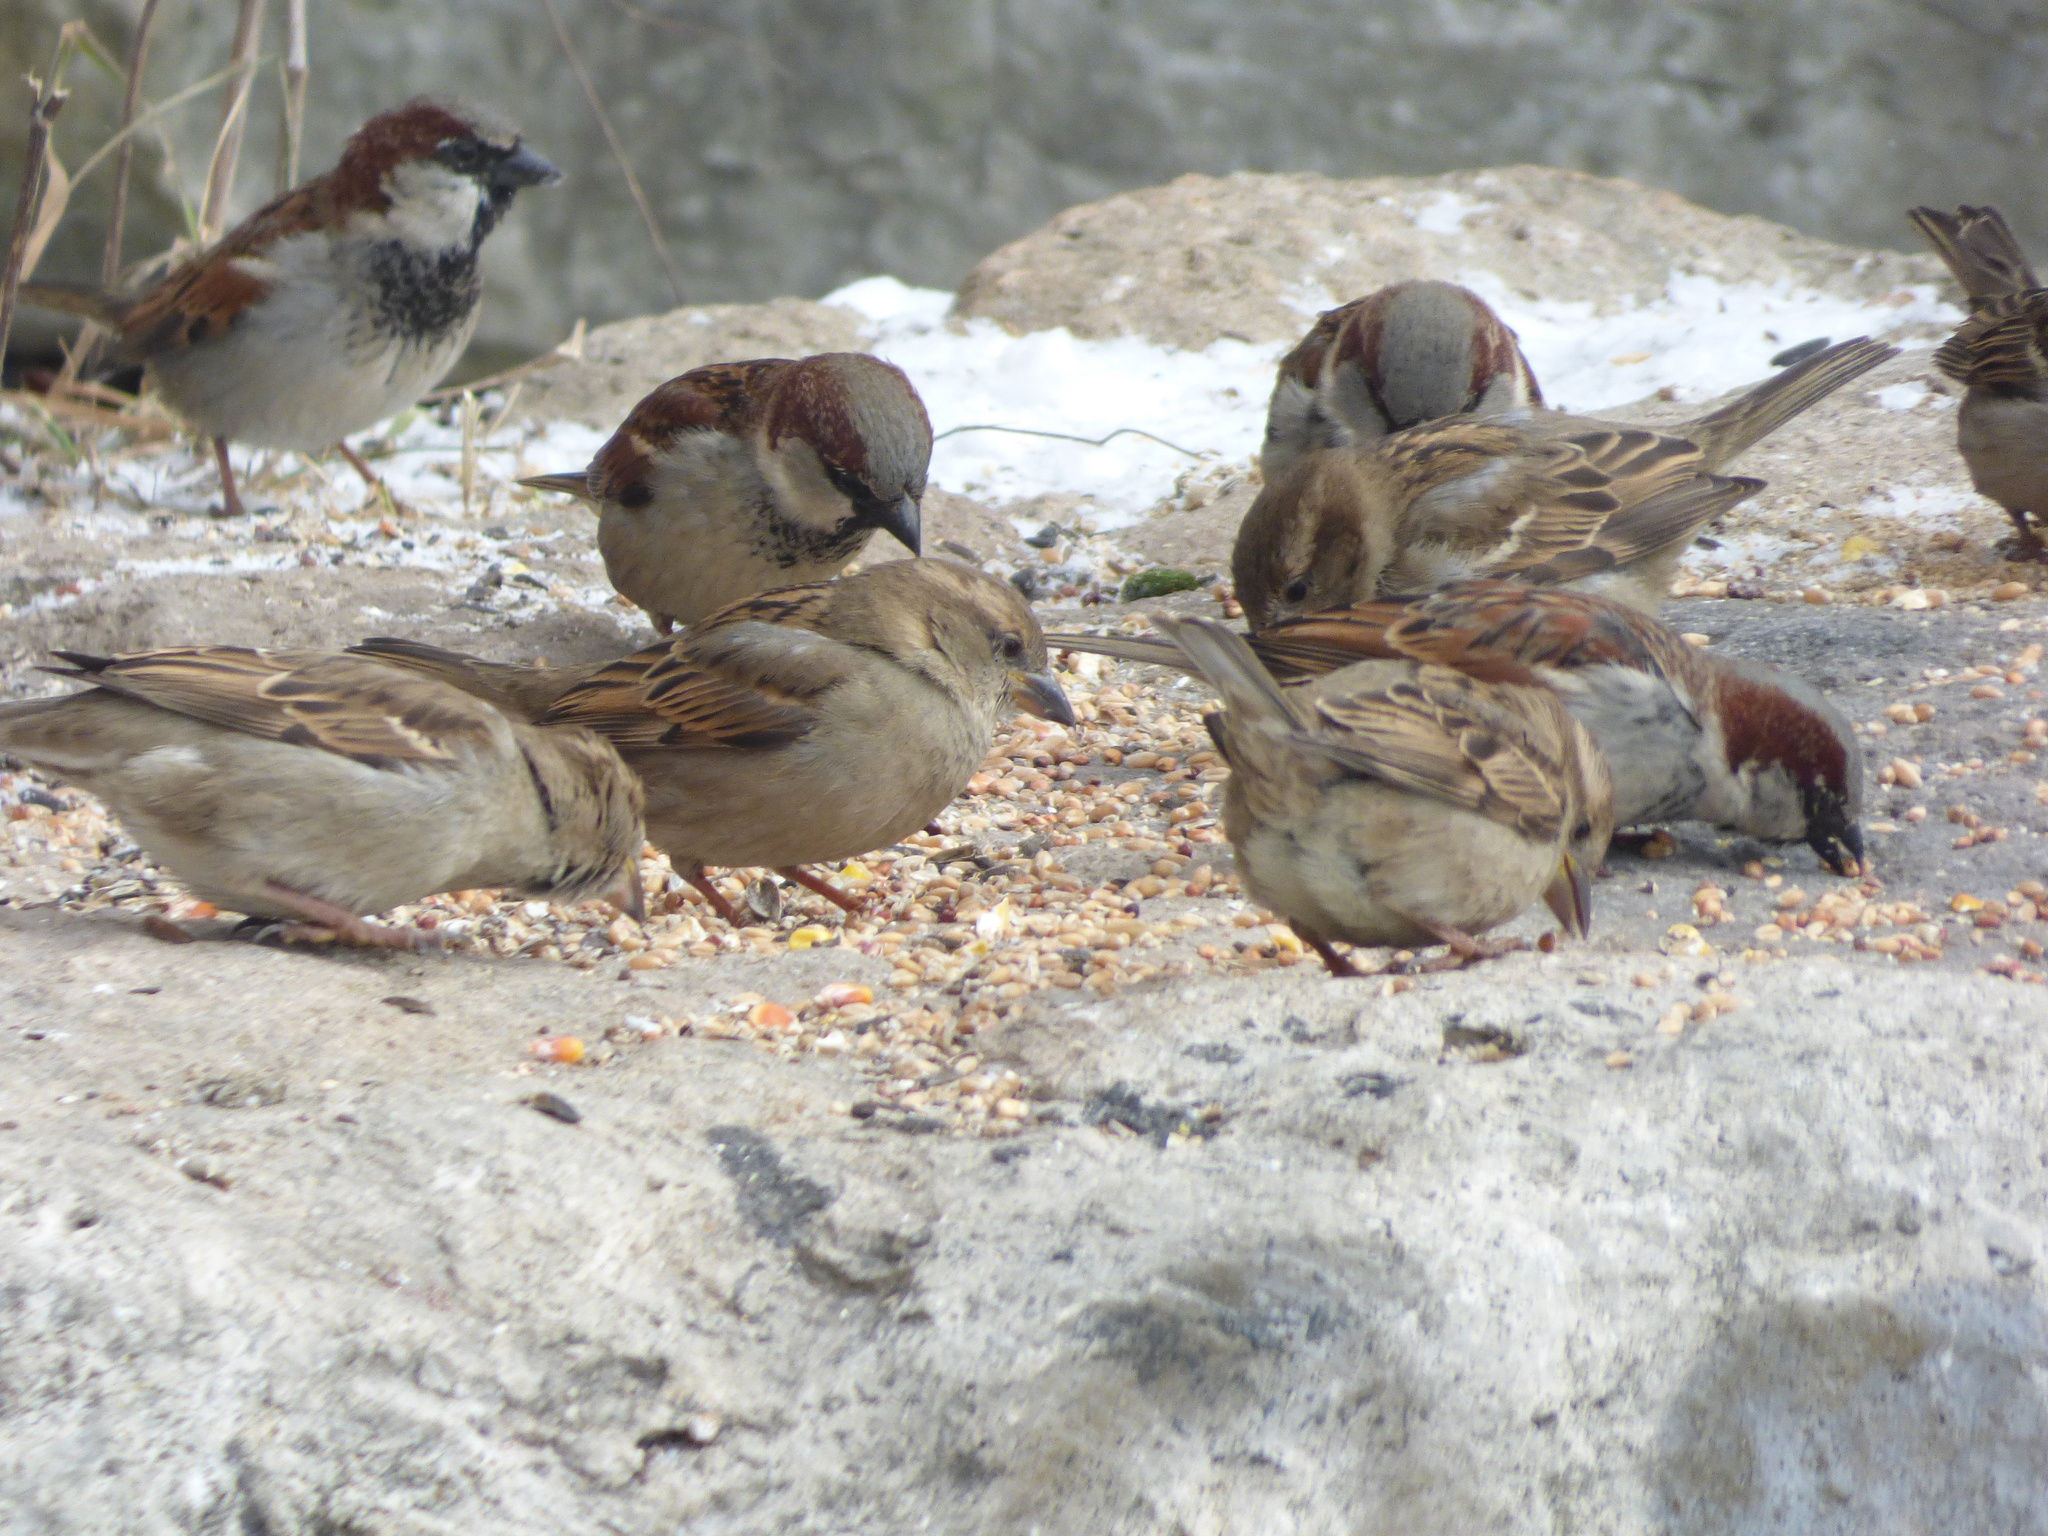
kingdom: Animalia
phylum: Chordata
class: Aves
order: Passeriformes
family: Passeridae
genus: Passer
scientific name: Passer domesticus
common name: House sparrow
